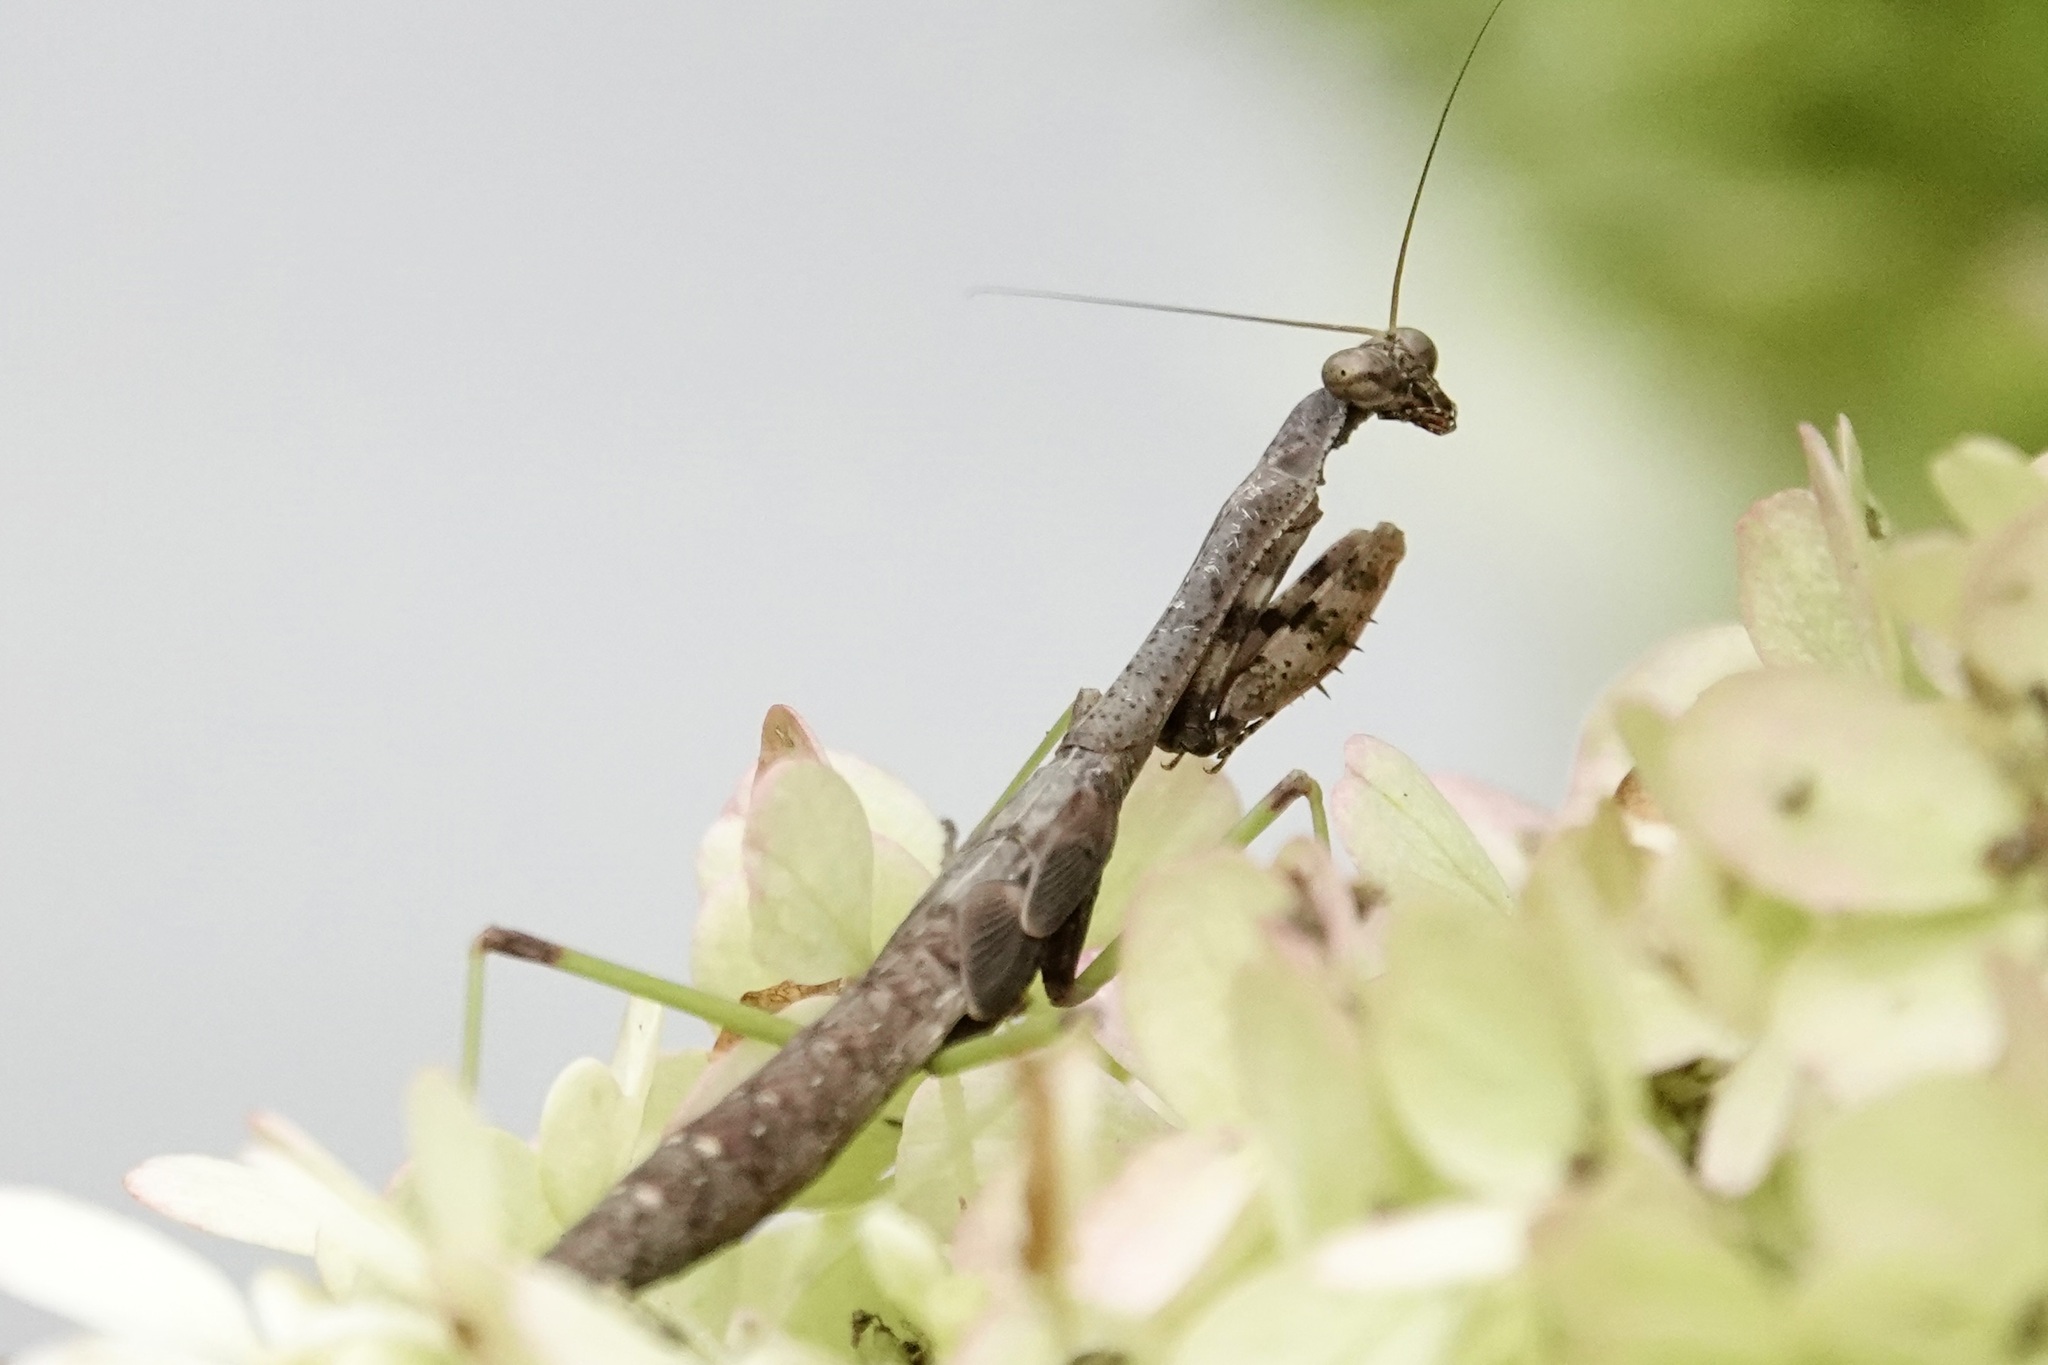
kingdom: Animalia
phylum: Arthropoda
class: Insecta
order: Mantodea
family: Mantidae
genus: Stagmomantis
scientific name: Stagmomantis carolina
